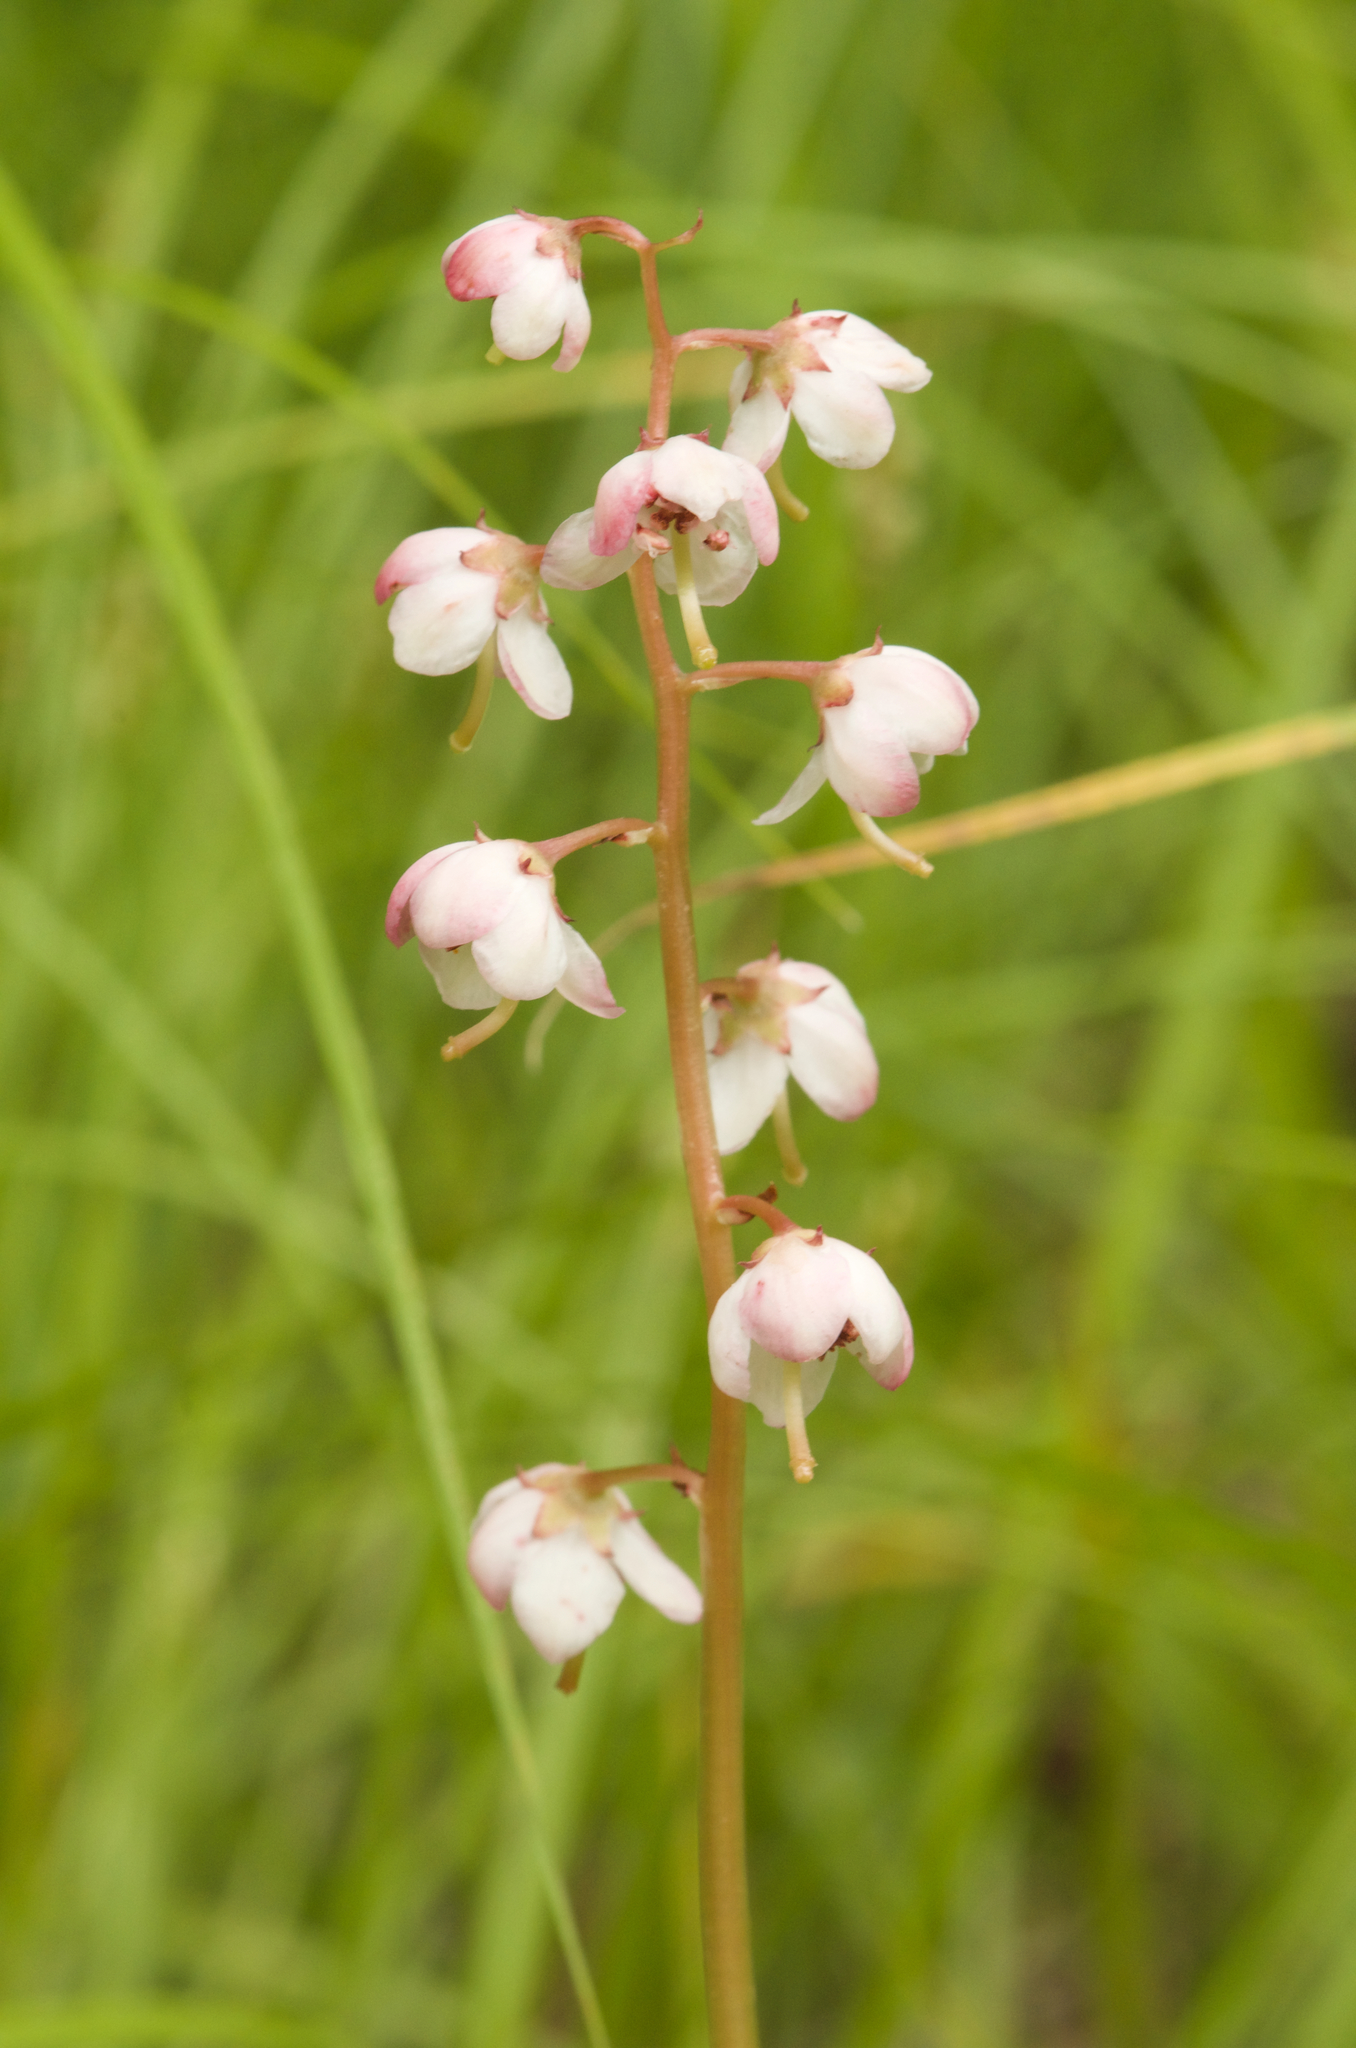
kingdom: Plantae
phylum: Tracheophyta
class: Magnoliopsida
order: Ericales
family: Ericaceae
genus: Pyrola
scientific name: Pyrola asarifolia
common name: Bog wintergreen
